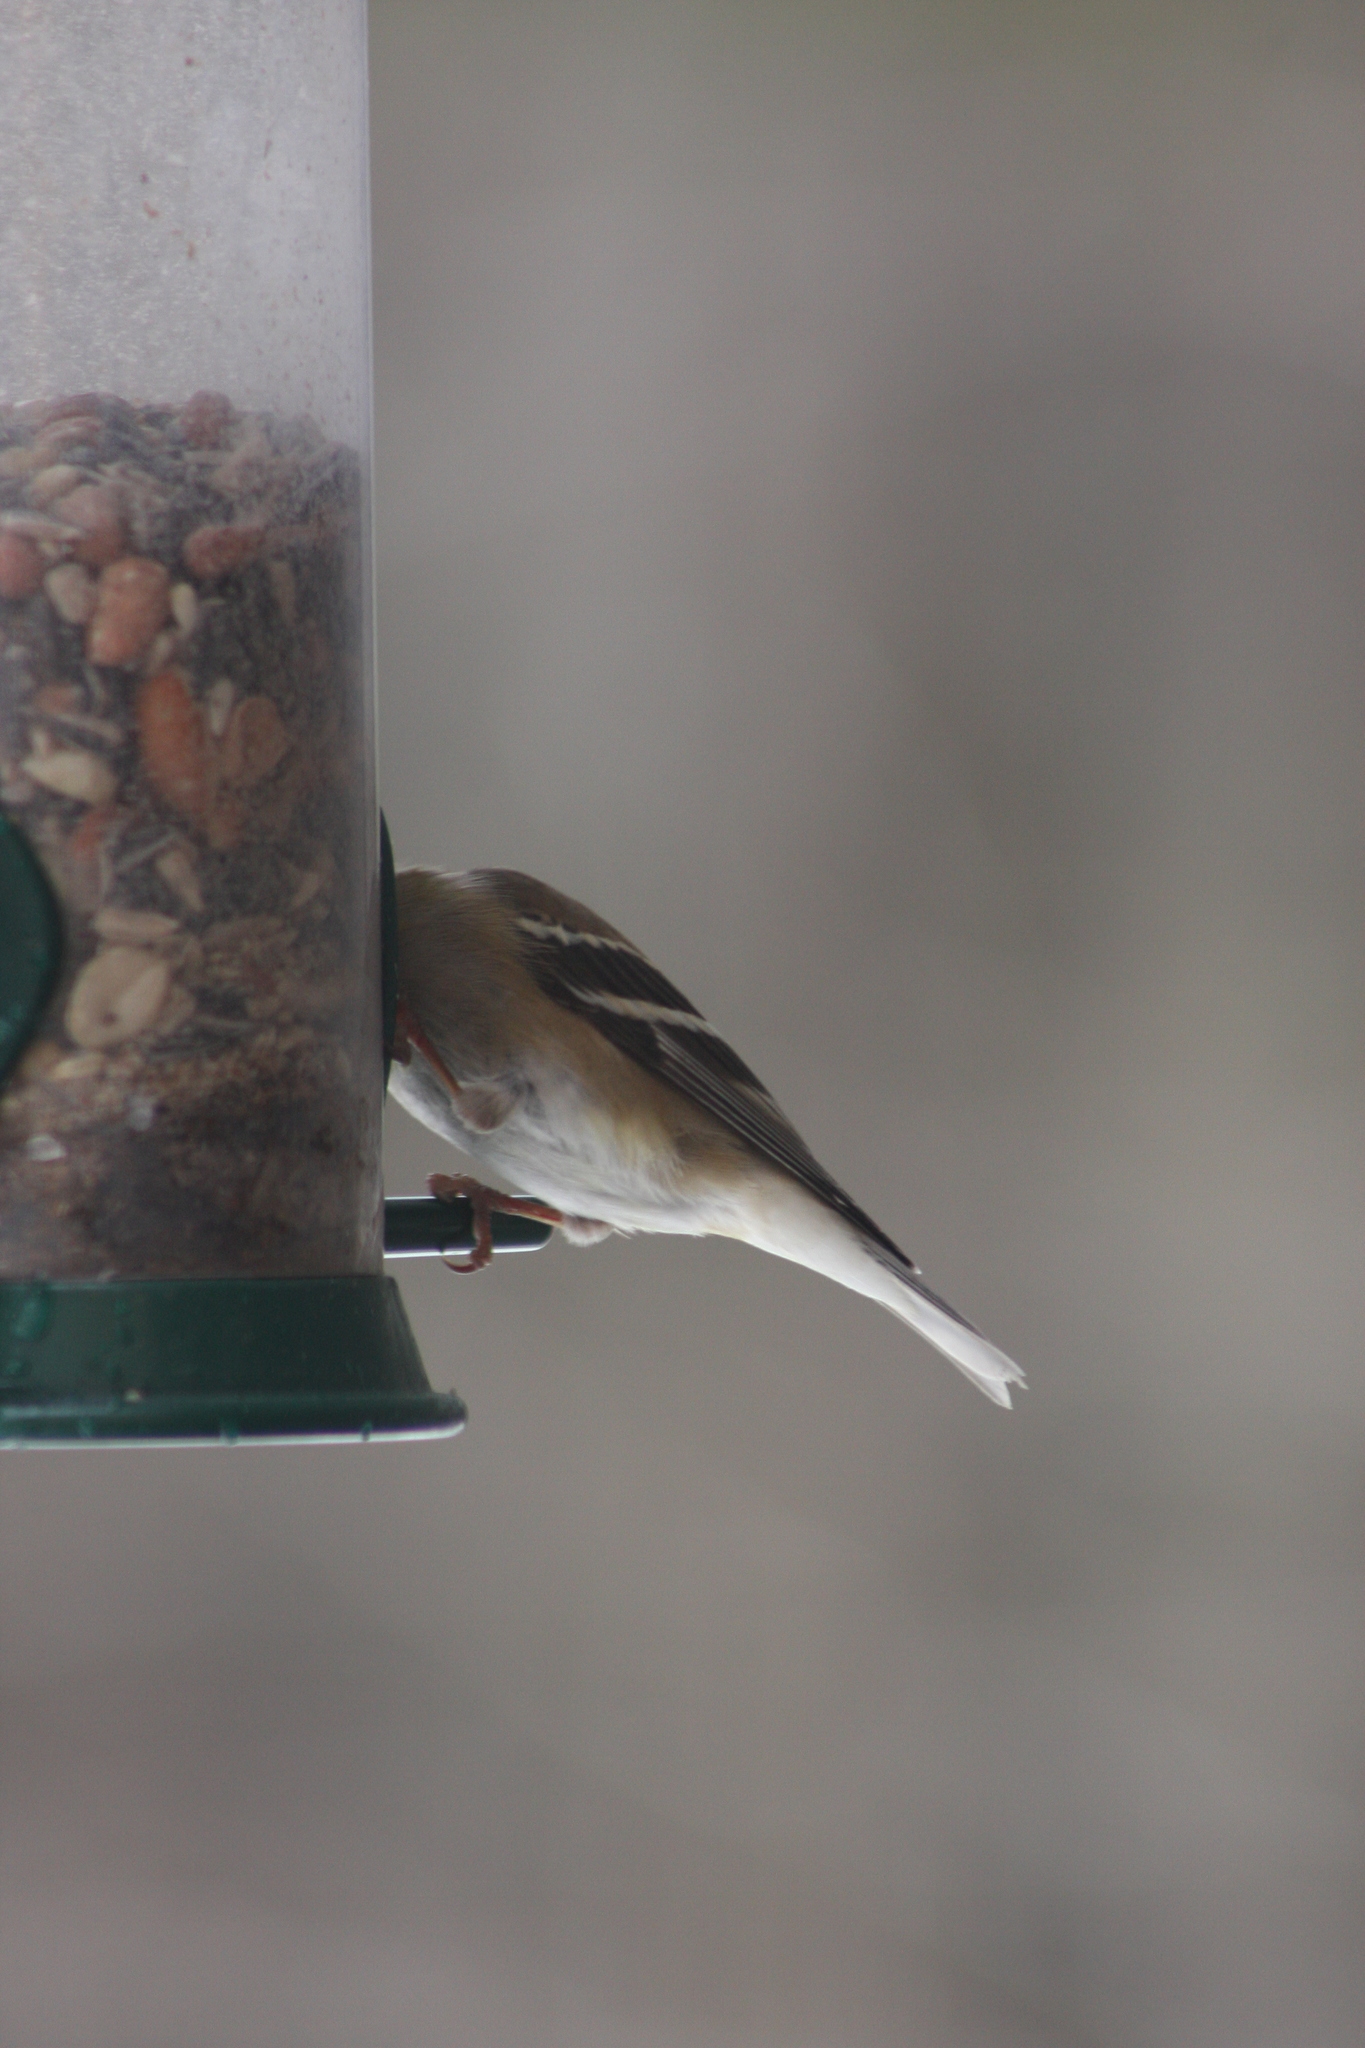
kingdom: Animalia
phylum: Chordata
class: Aves
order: Passeriformes
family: Fringillidae
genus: Spinus
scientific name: Spinus tristis
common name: American goldfinch
